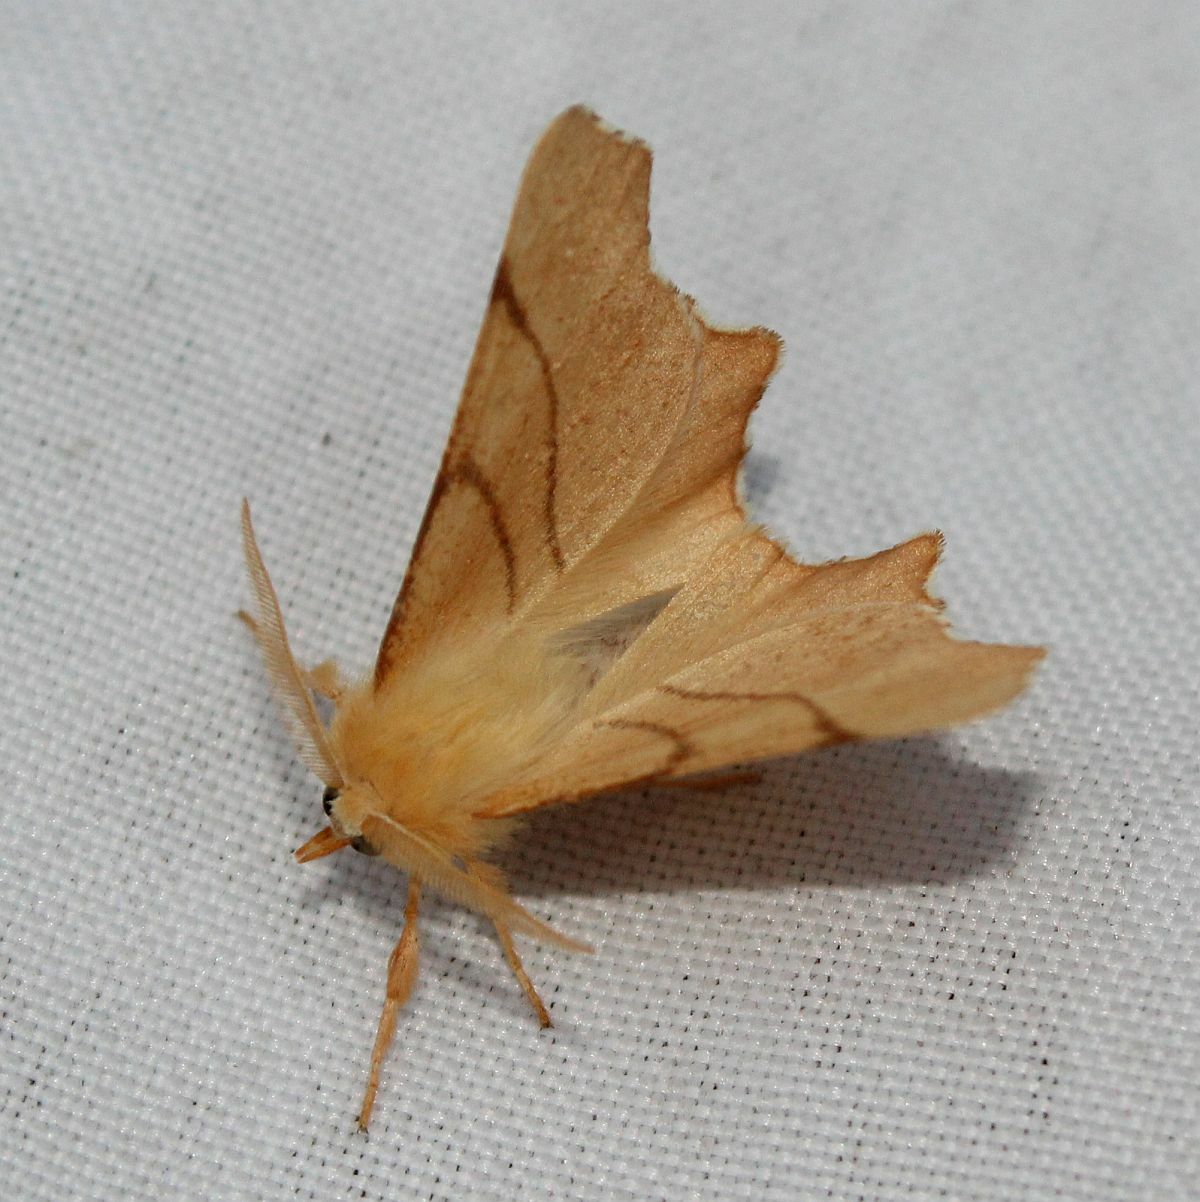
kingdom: Animalia
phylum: Arthropoda
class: Insecta
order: Lepidoptera
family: Geometridae
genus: Ennomos
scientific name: Ennomos erosaria
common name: September thorn
